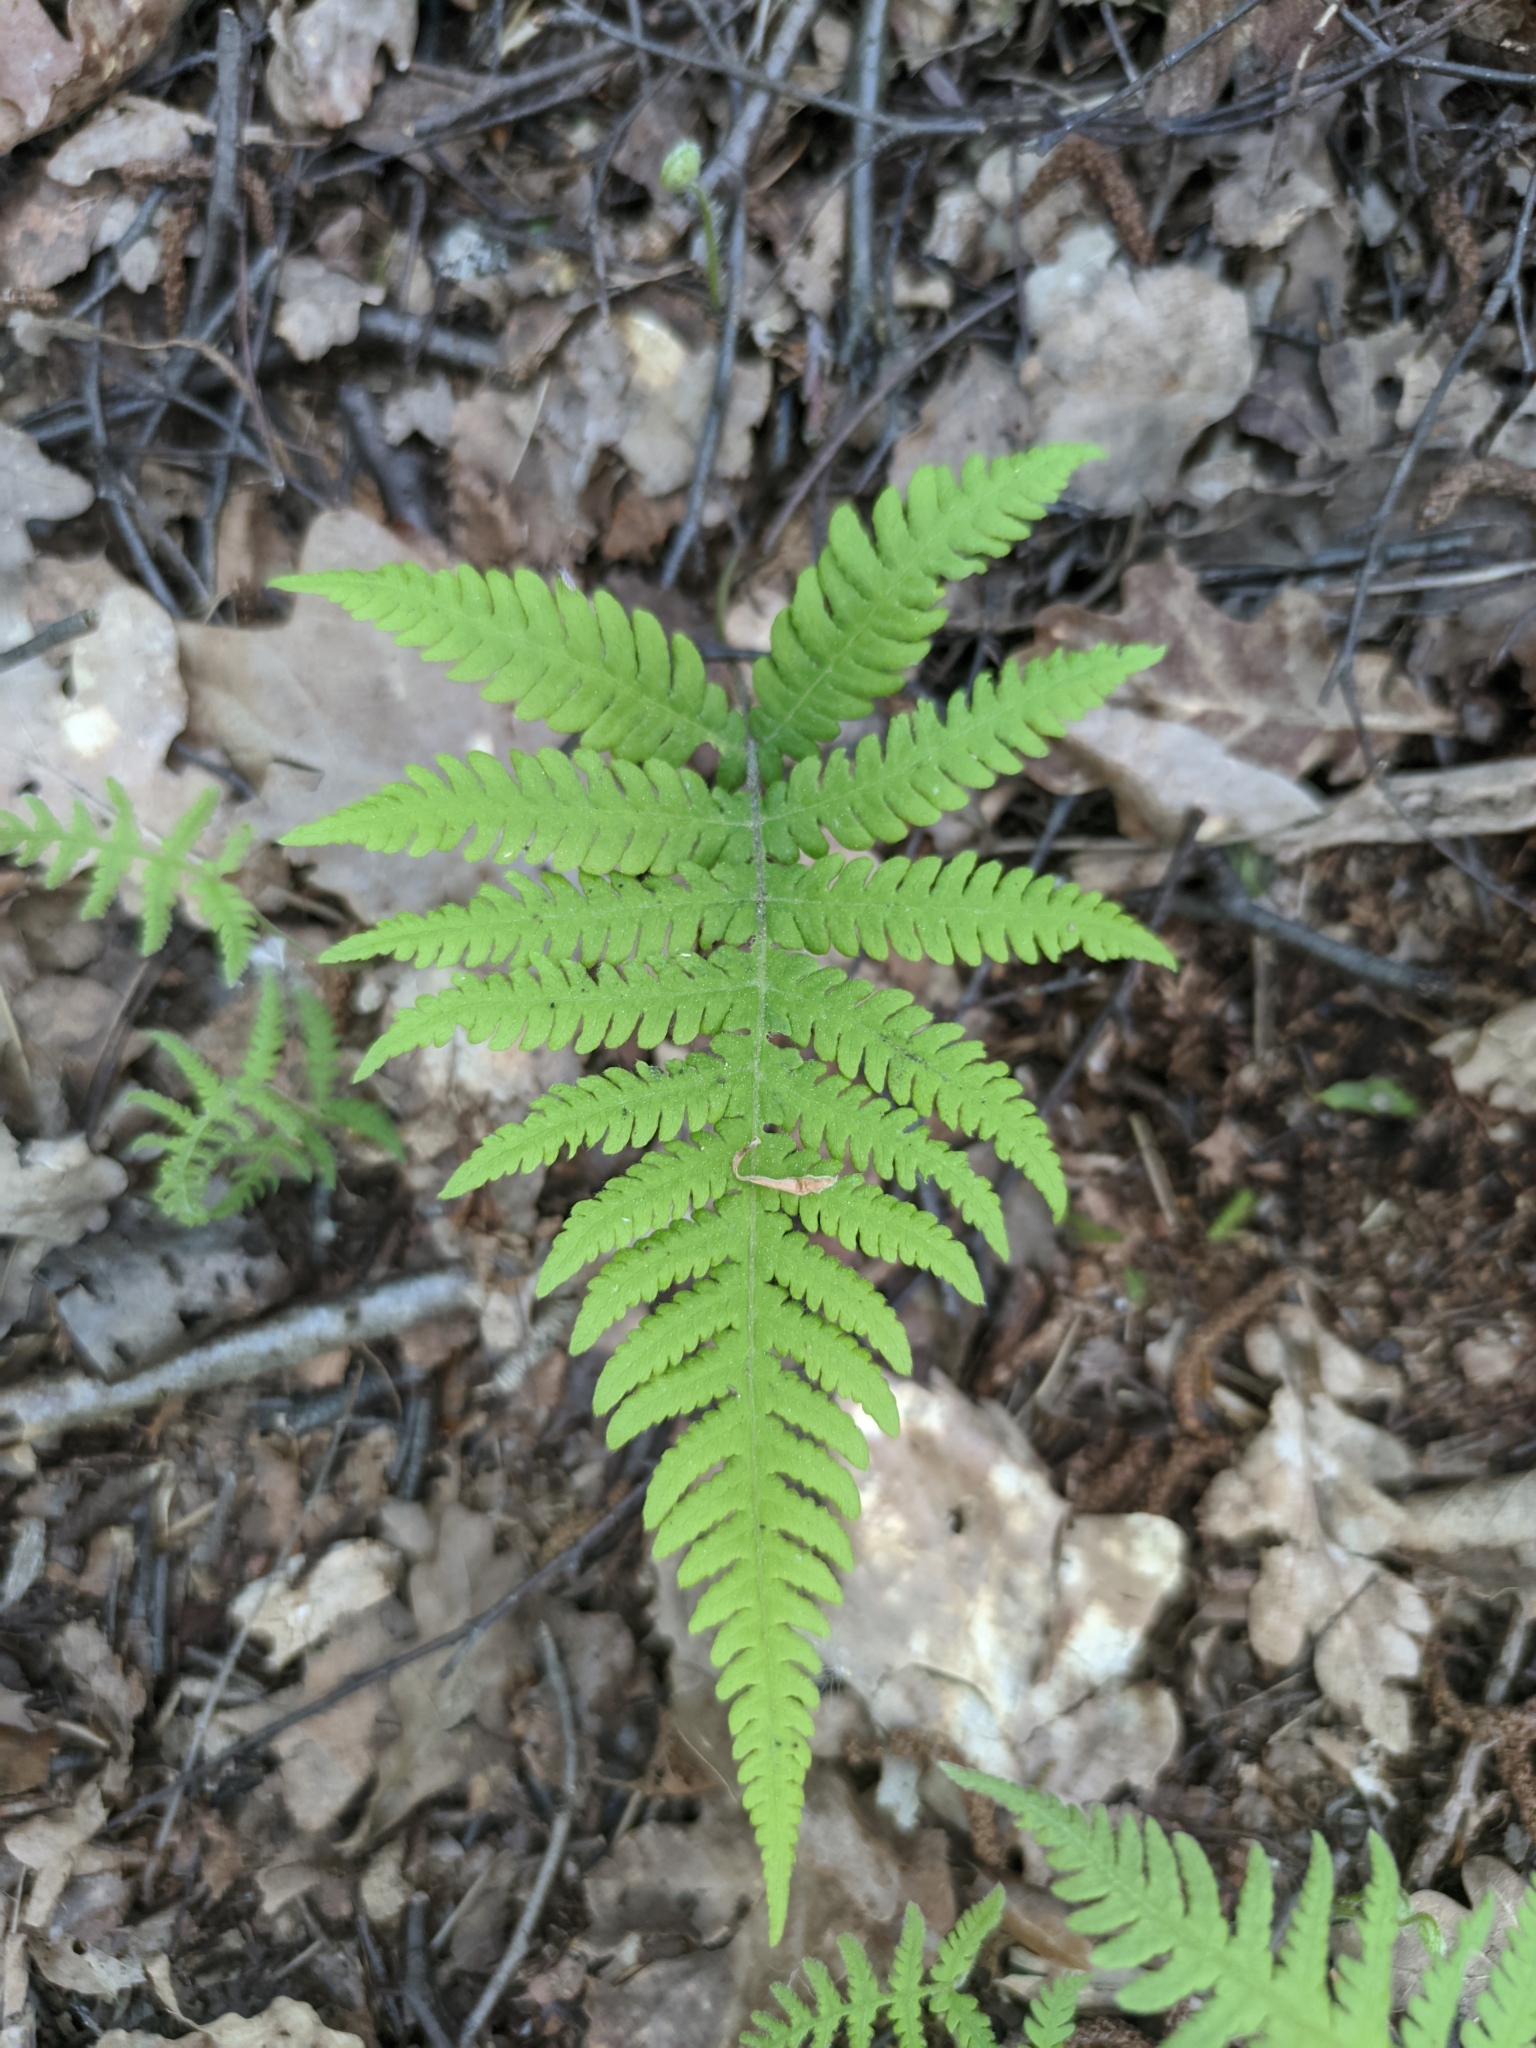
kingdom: Plantae
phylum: Tracheophyta
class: Polypodiopsida
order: Polypodiales
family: Thelypteridaceae
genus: Phegopteris
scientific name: Phegopteris connectilis
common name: Beech fern
